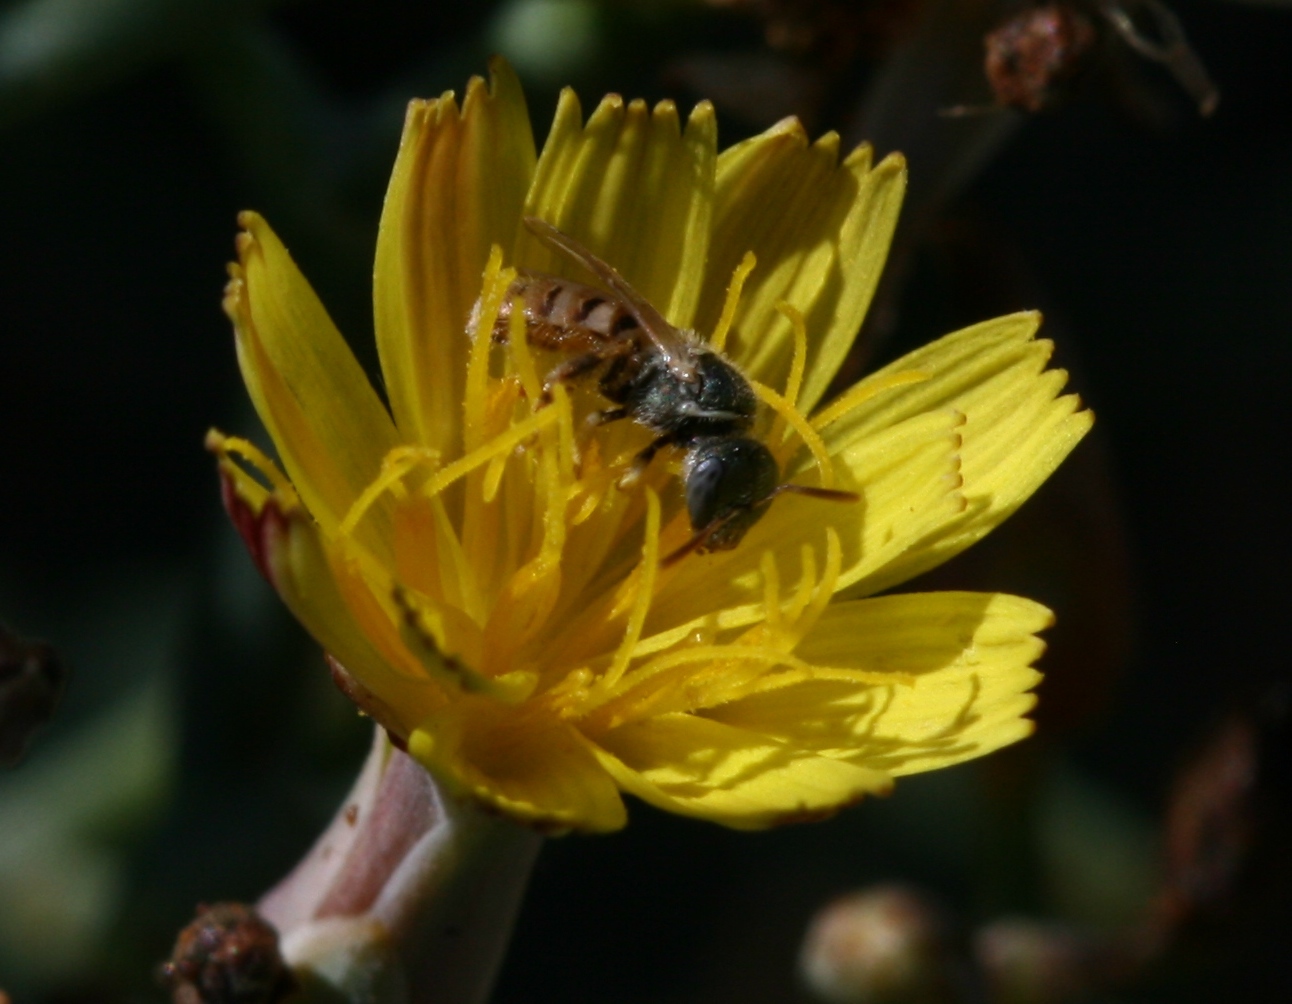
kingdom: Animalia
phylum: Arthropoda
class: Insecta
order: Hymenoptera
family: Halictidae
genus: Nomioides
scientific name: Nomioides deceptor
